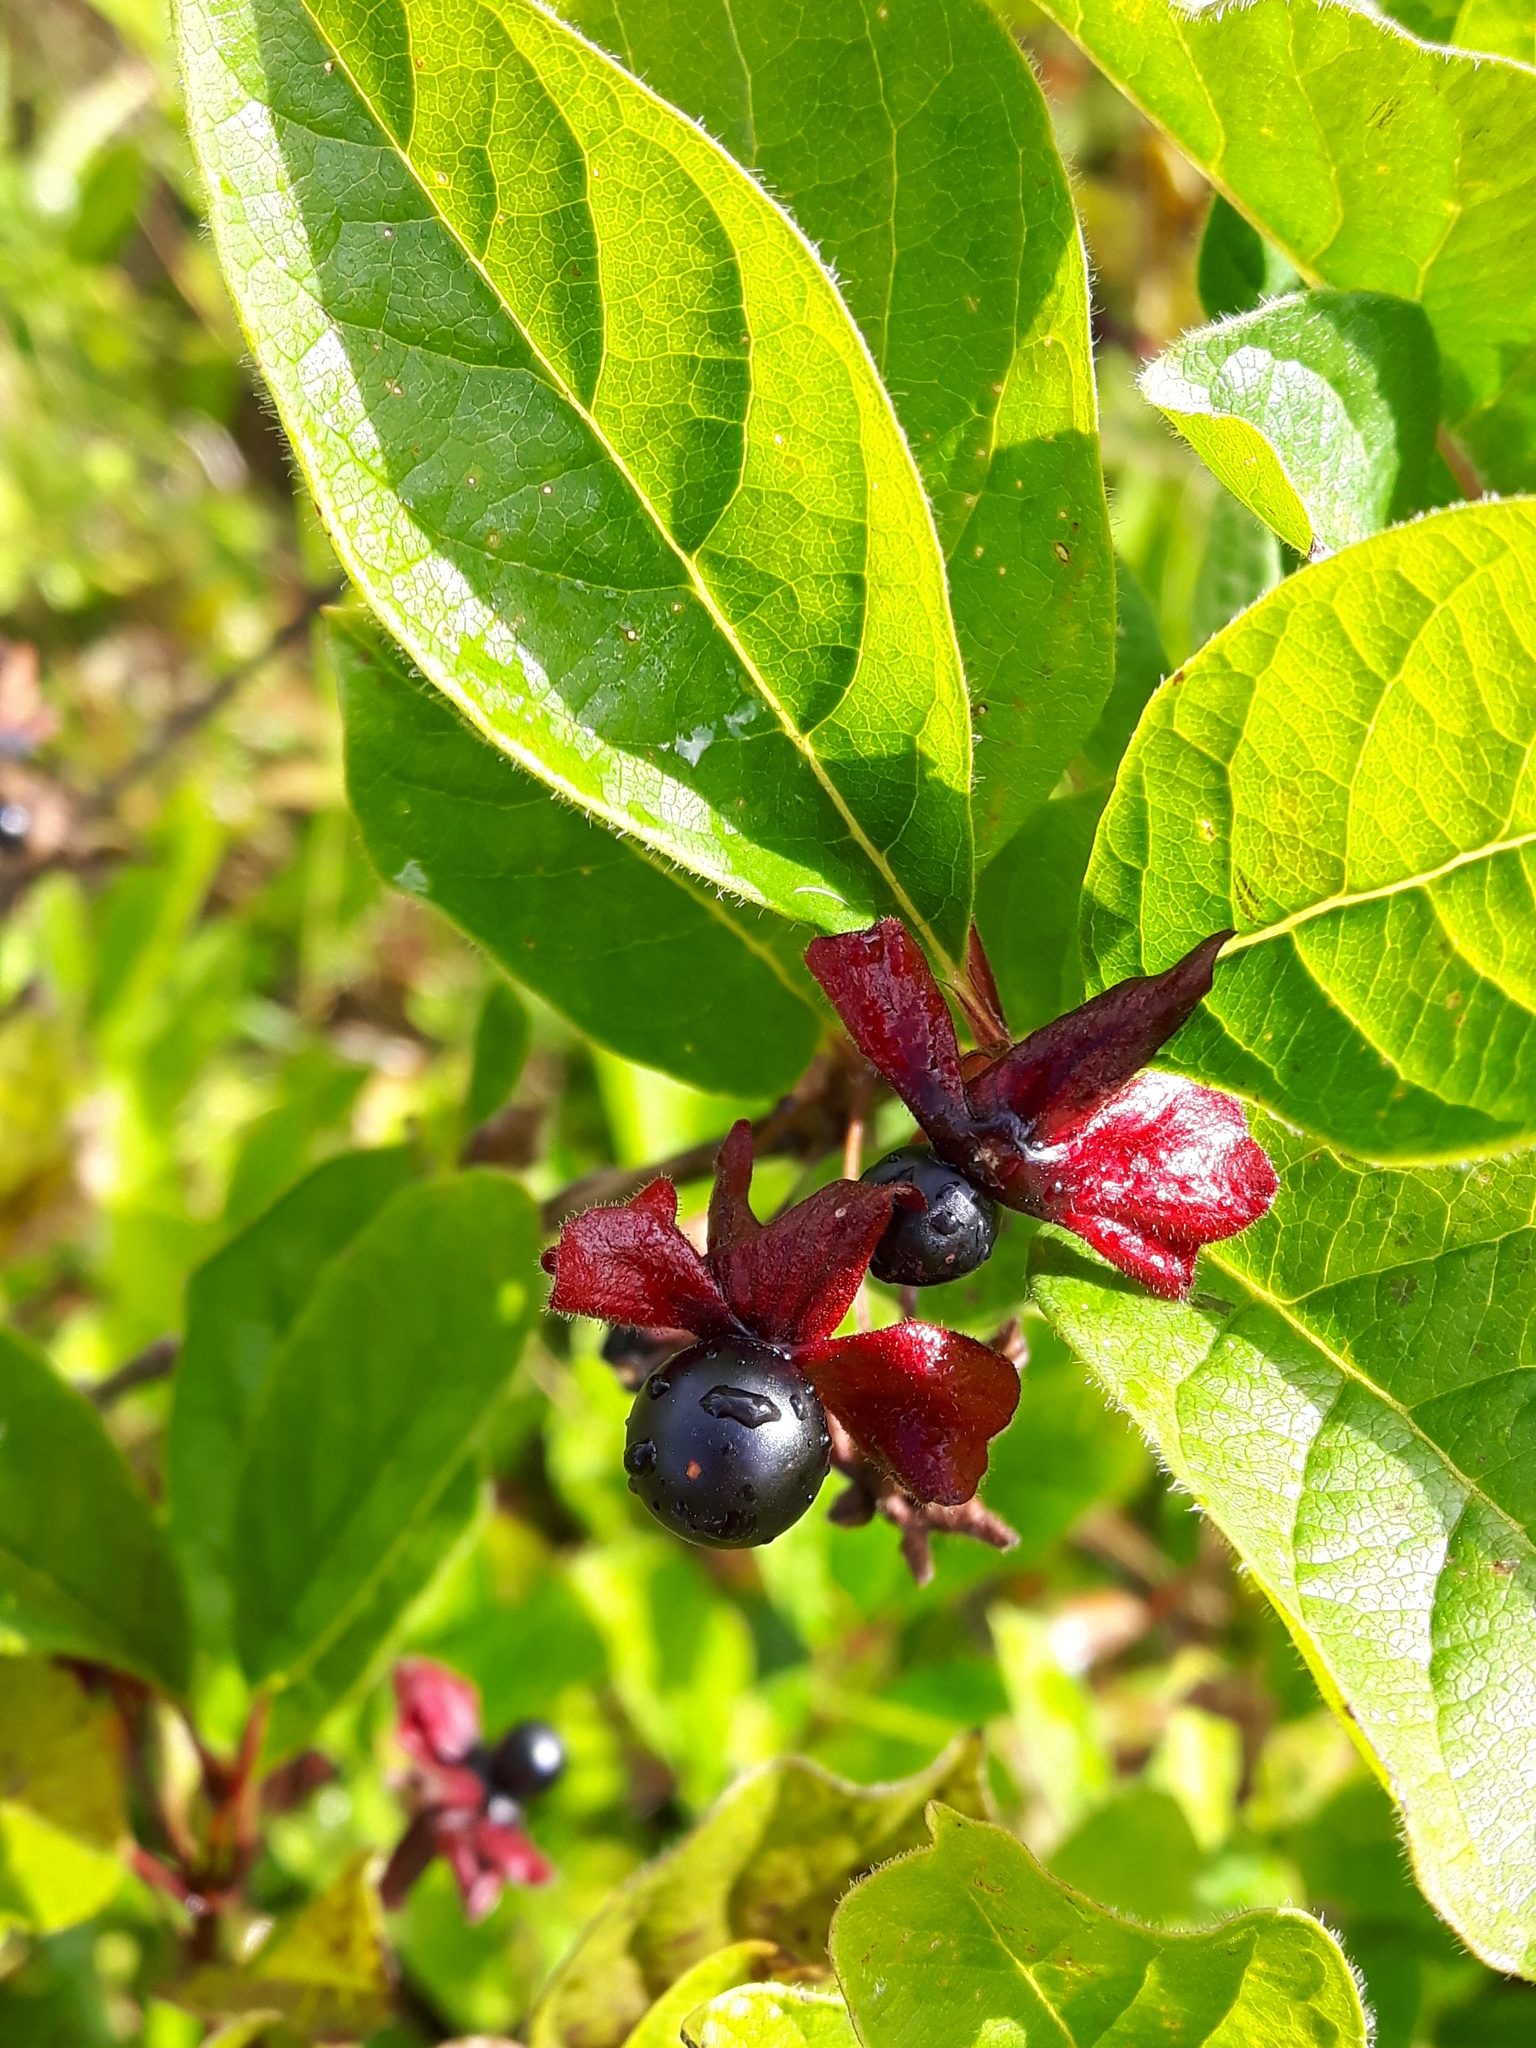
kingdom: Plantae
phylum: Tracheophyta
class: Magnoliopsida
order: Dipsacales
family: Caprifoliaceae
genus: Lonicera
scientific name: Lonicera involucrata
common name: Californian honeysuckle
